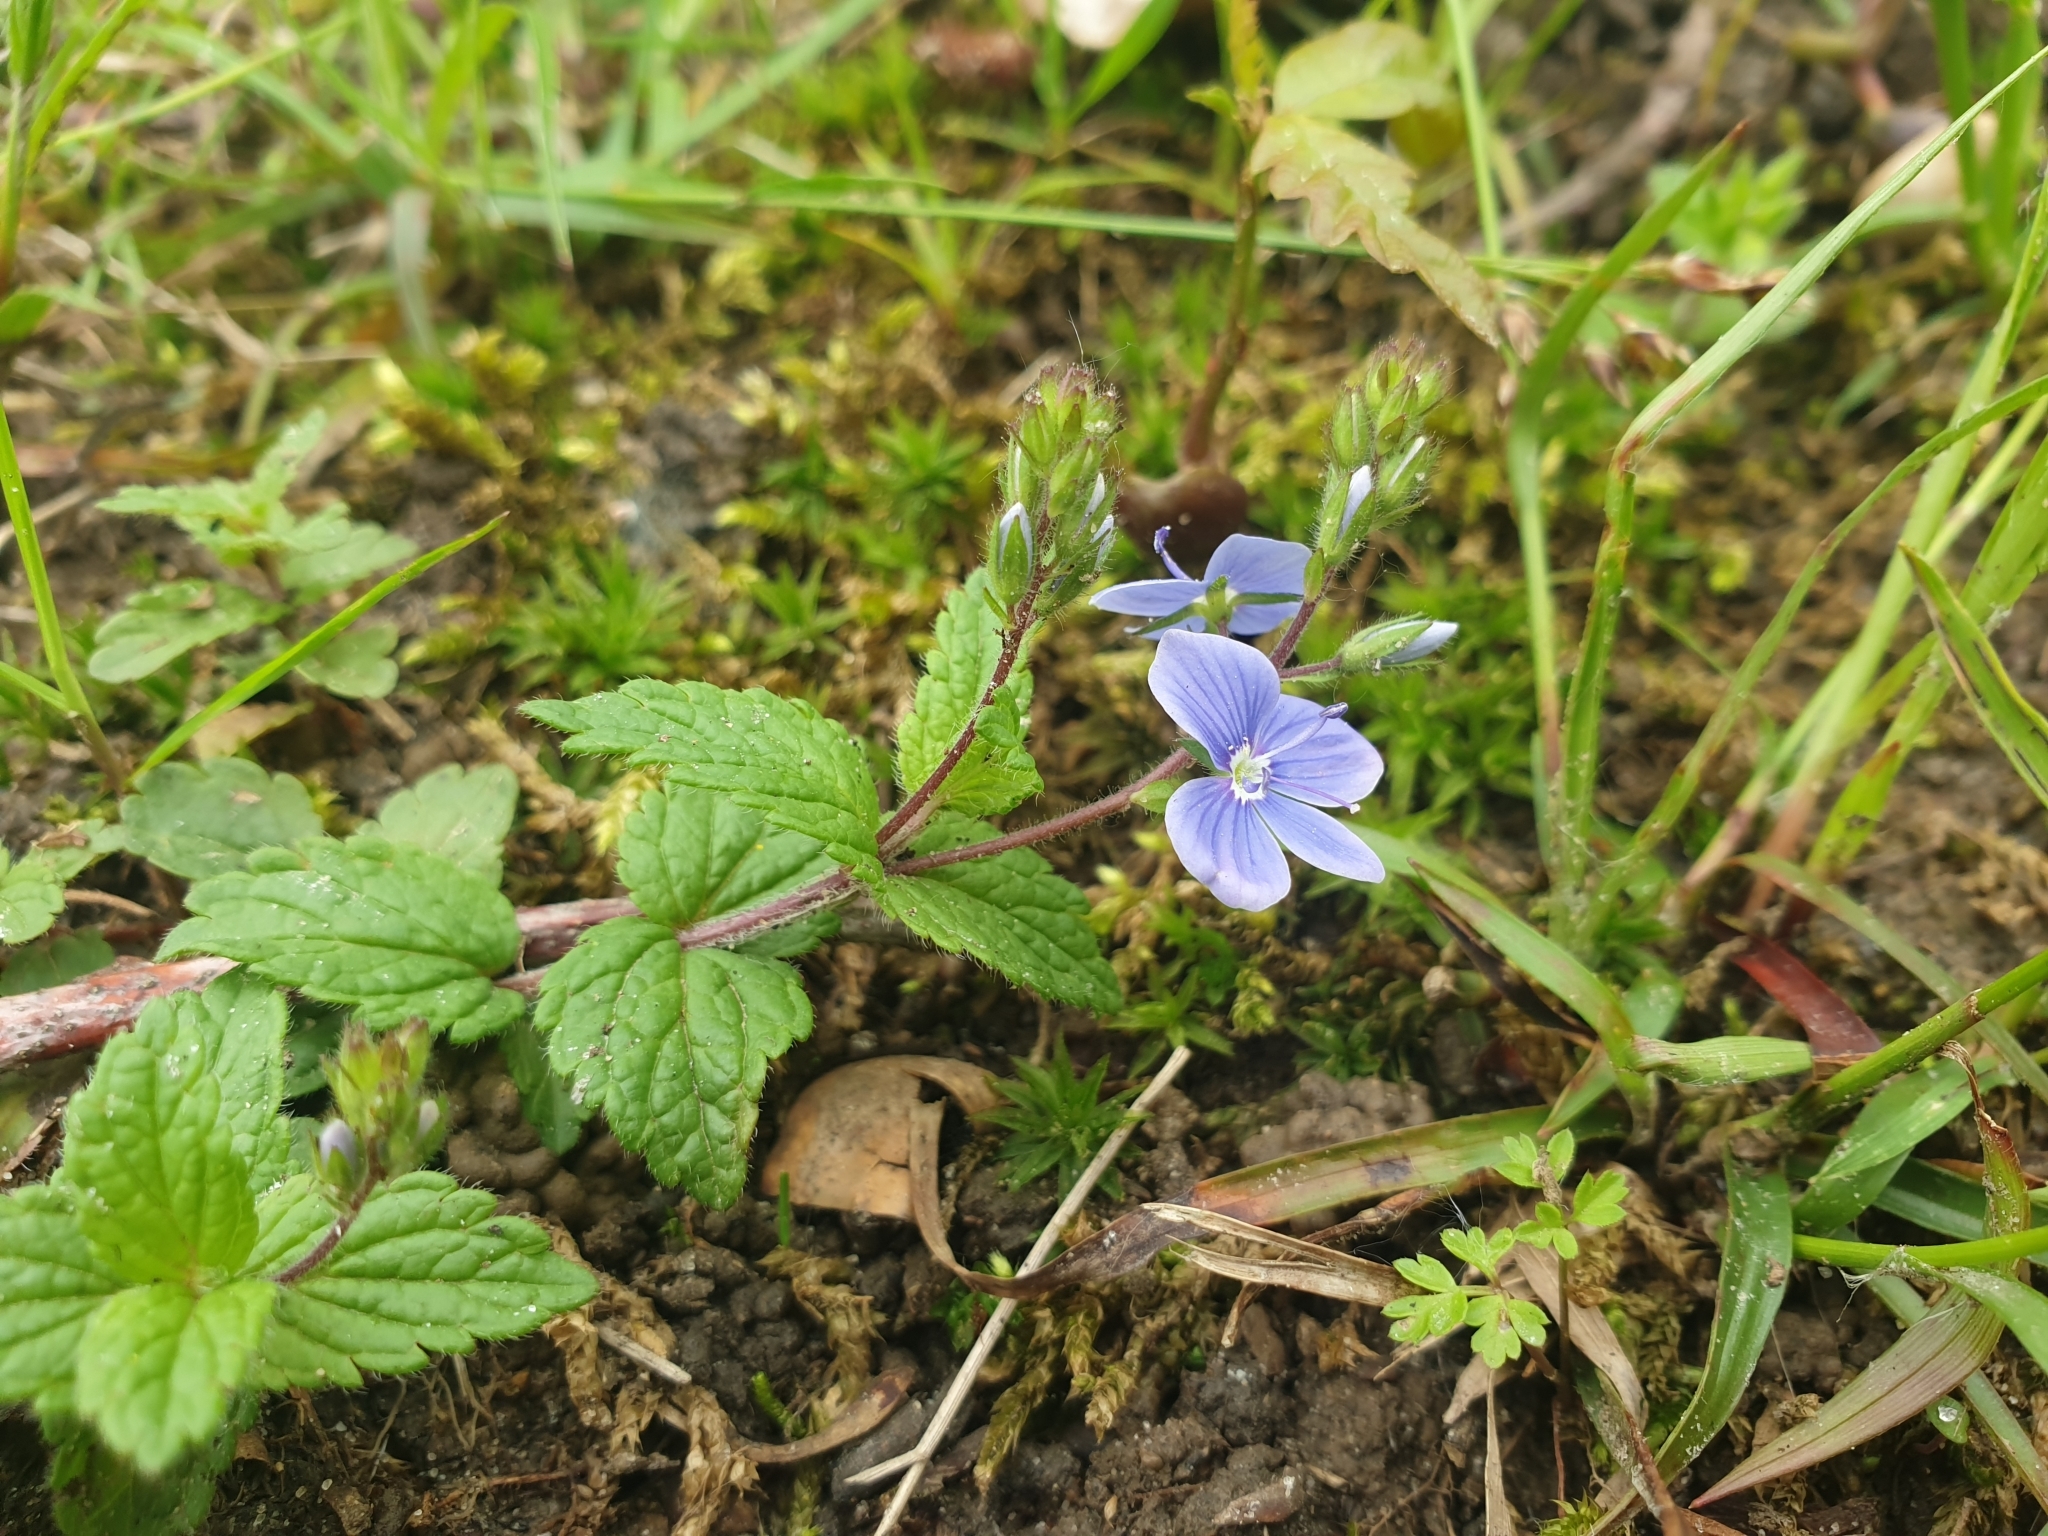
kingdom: Plantae
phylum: Tracheophyta
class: Magnoliopsida
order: Lamiales
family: Plantaginaceae
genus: Veronica
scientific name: Veronica chamaedrys
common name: Germander speedwell
